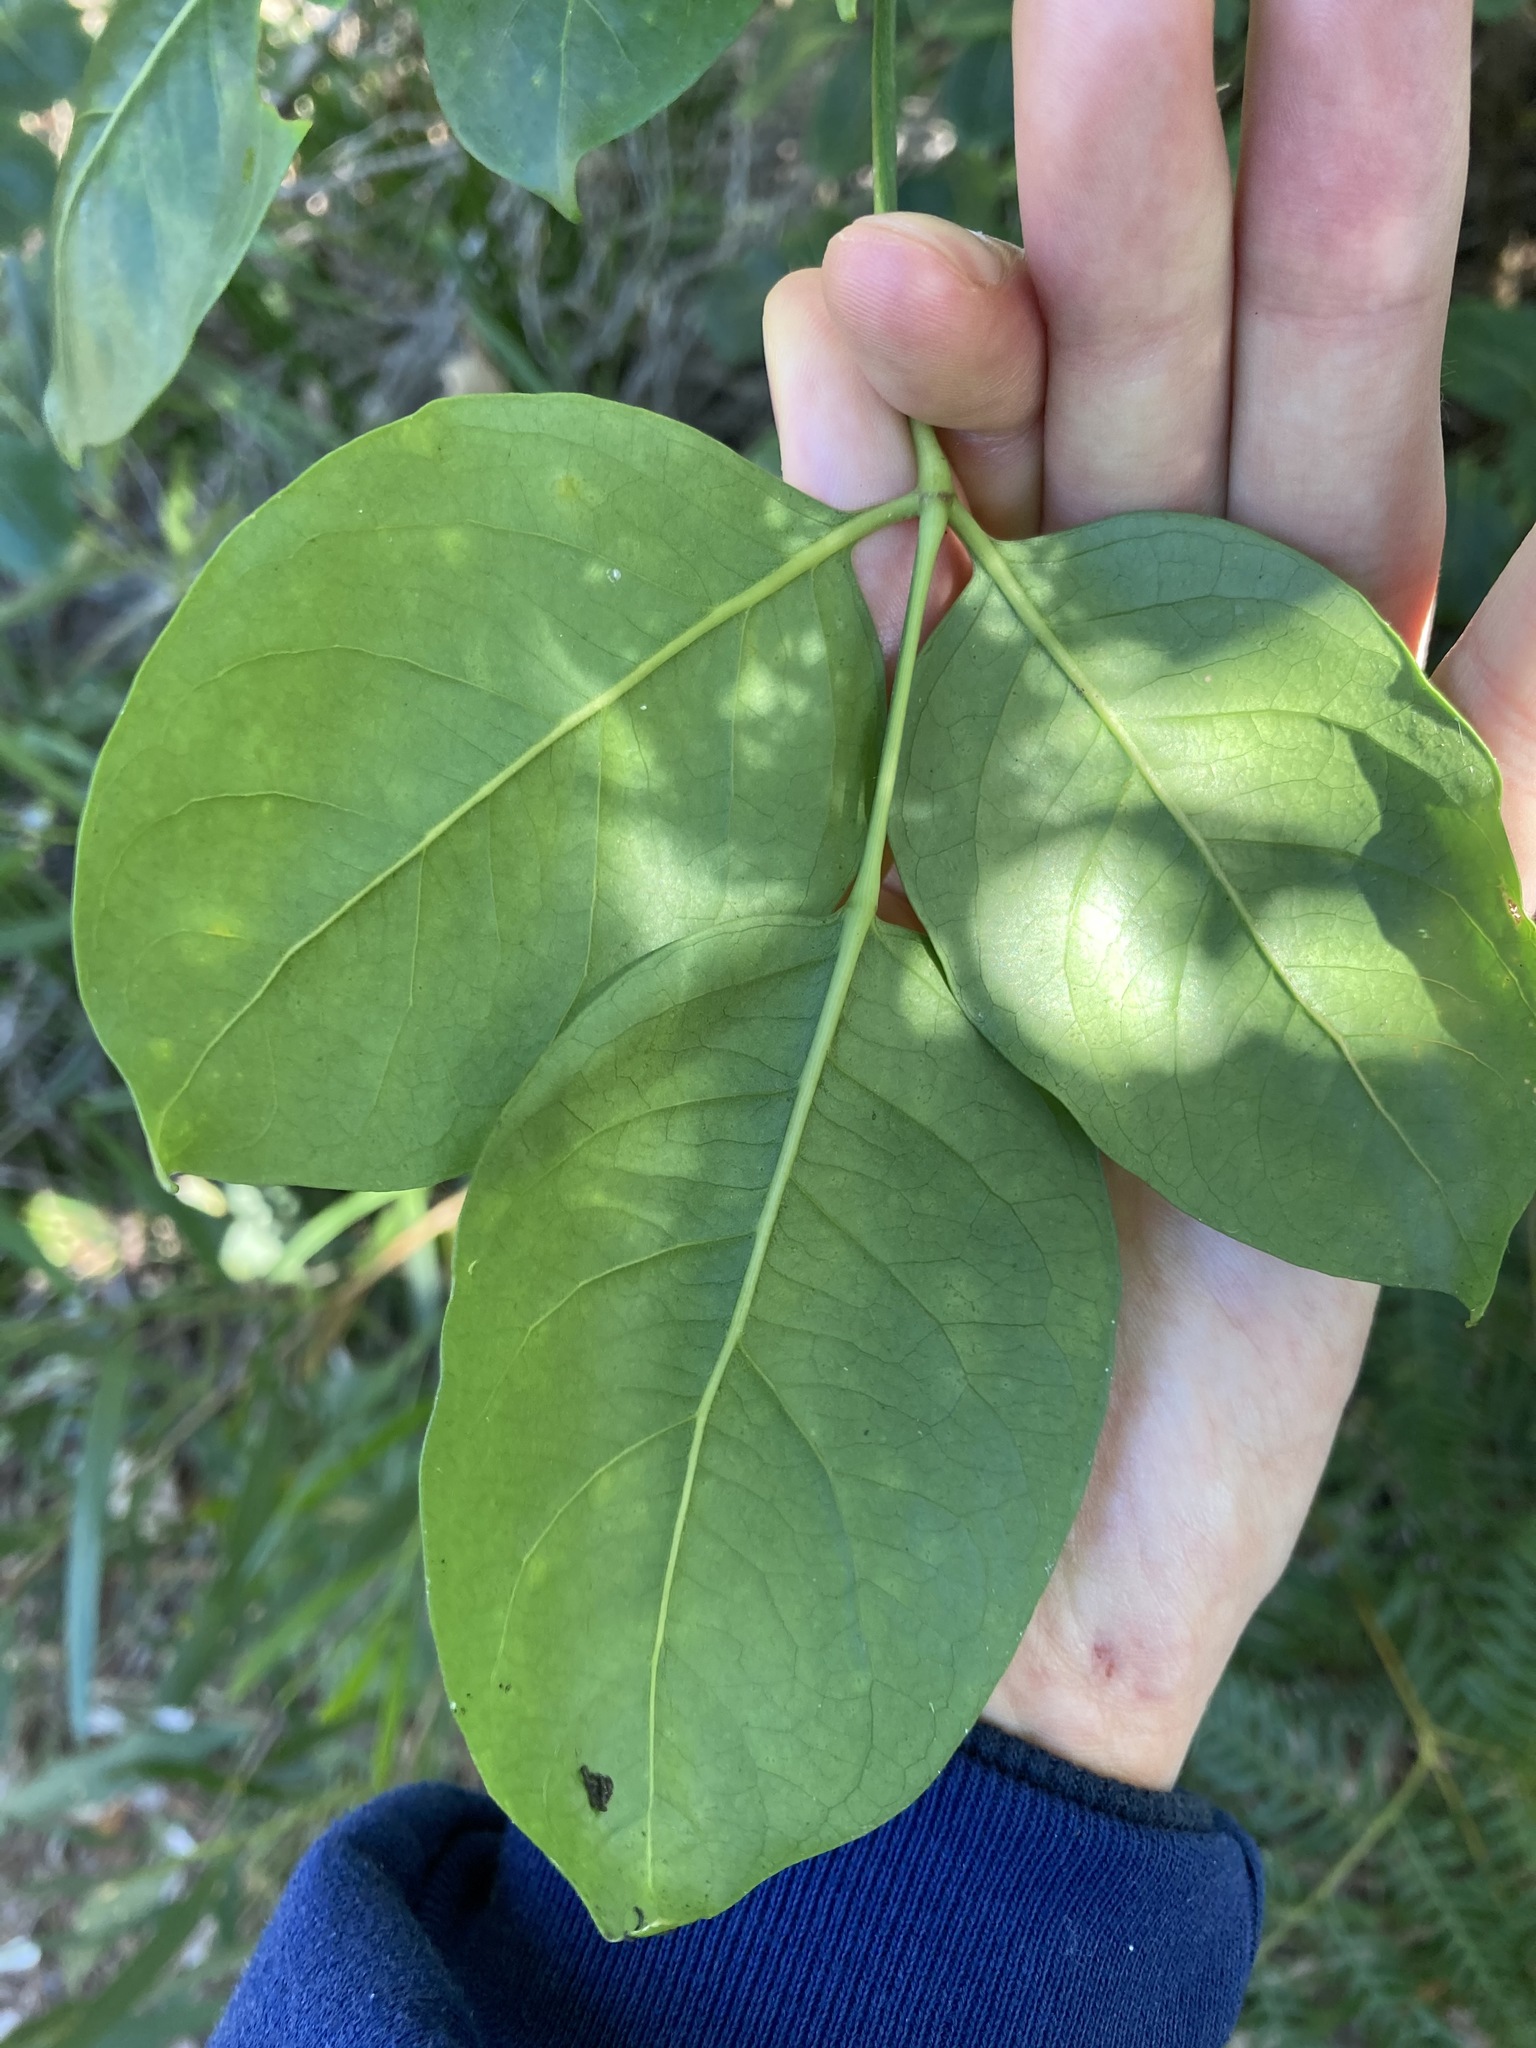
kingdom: Plantae
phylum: Tracheophyta
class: Magnoliopsida
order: Apiales
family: Araliaceae
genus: Polyscias
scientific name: Polyscias elegans
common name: Mowbulan whitewood
